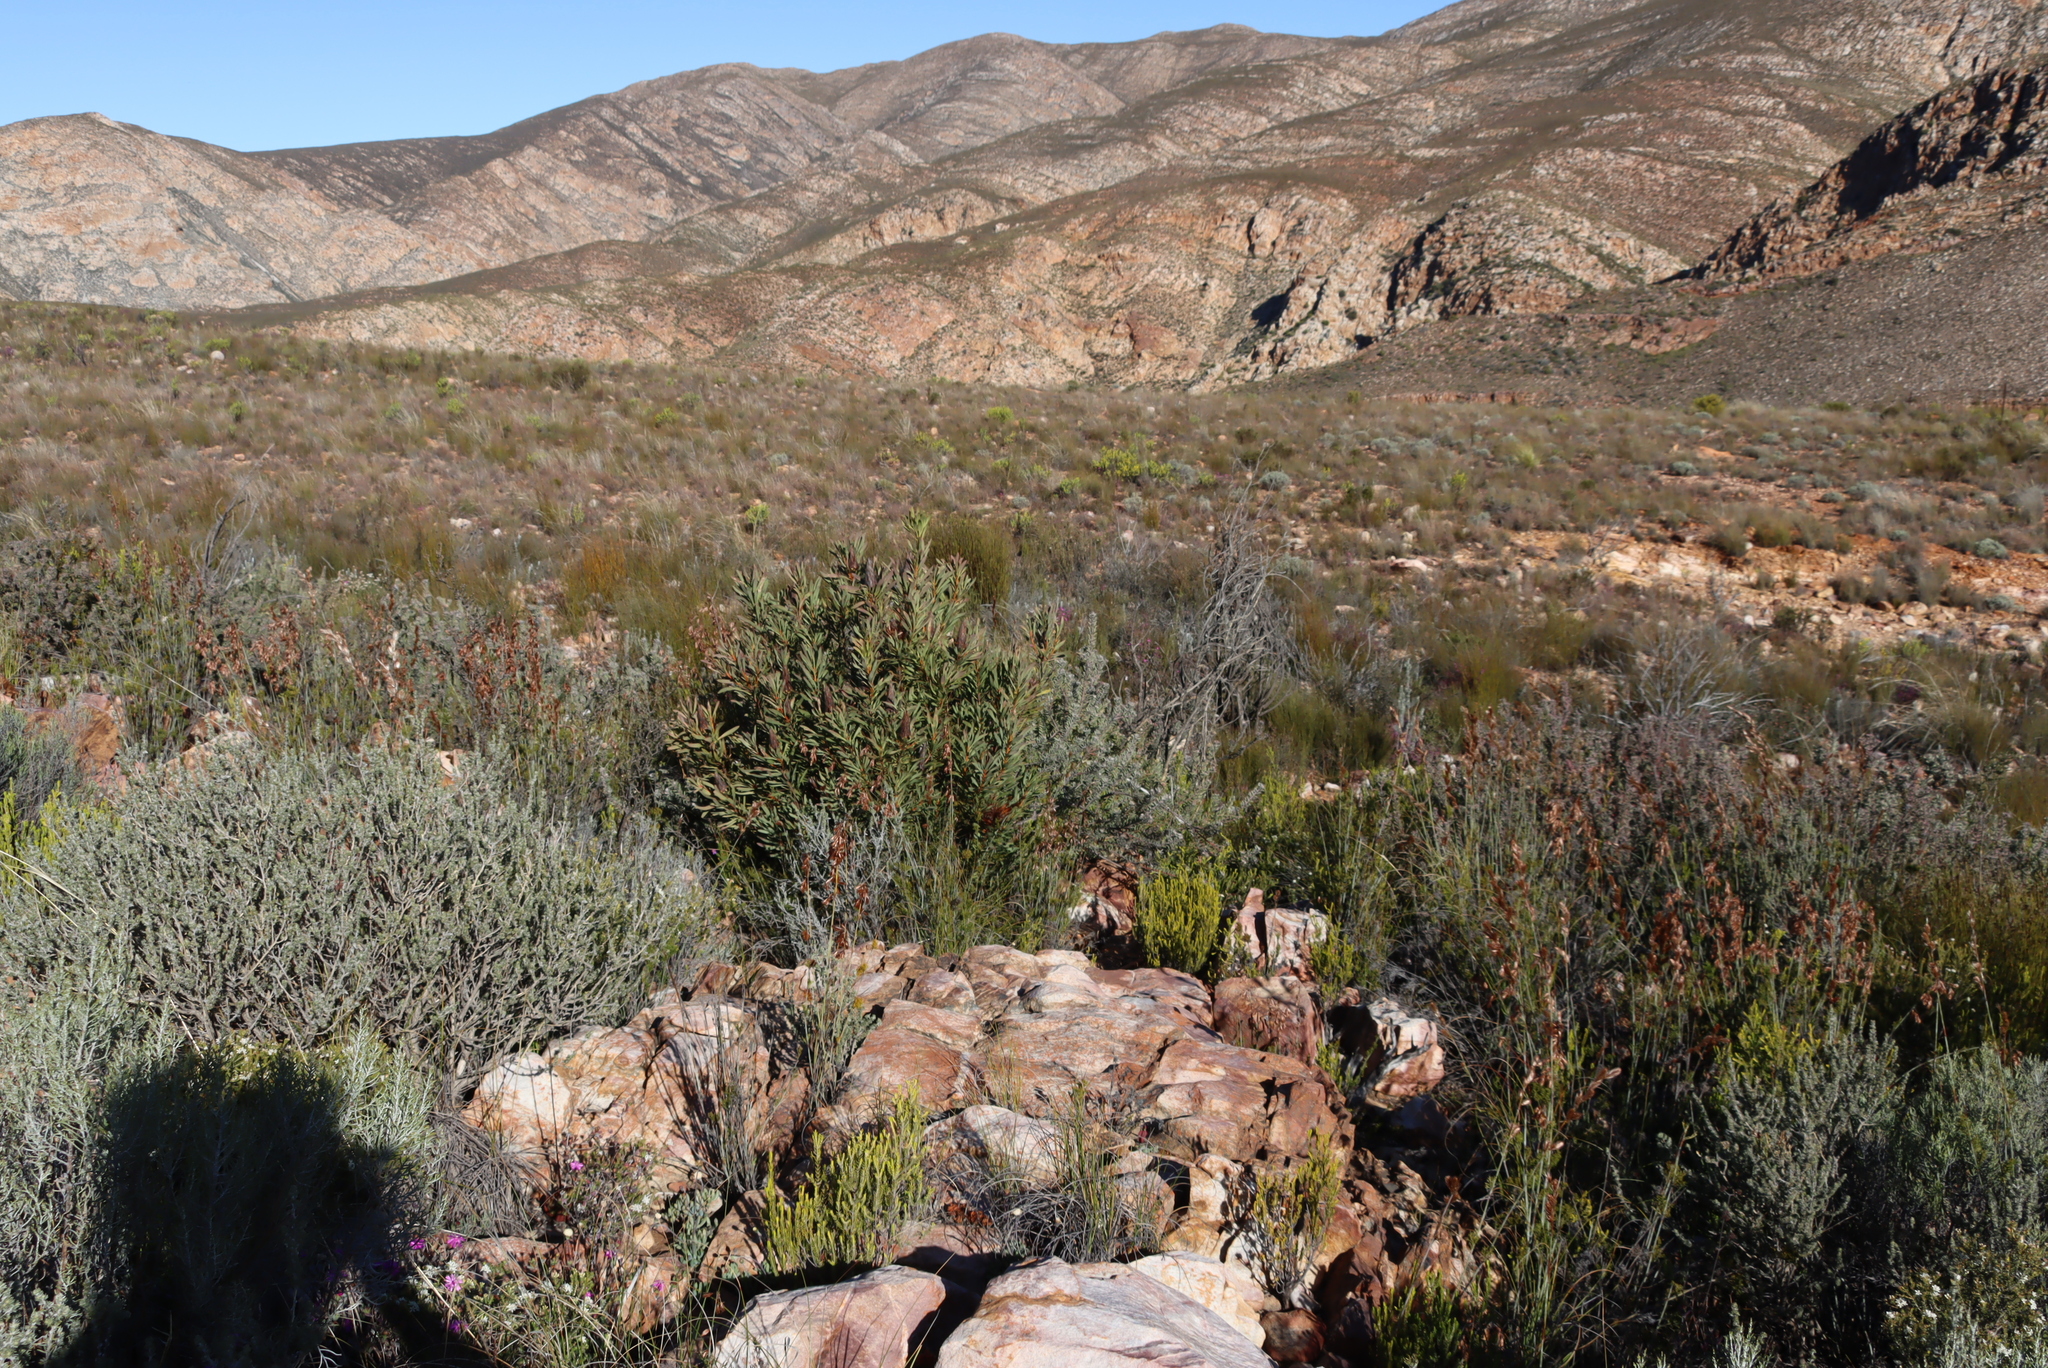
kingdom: Plantae
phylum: Tracheophyta
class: Magnoliopsida
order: Proteales
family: Proteaceae
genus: Protea
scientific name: Protea repens
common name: Sugarbush
